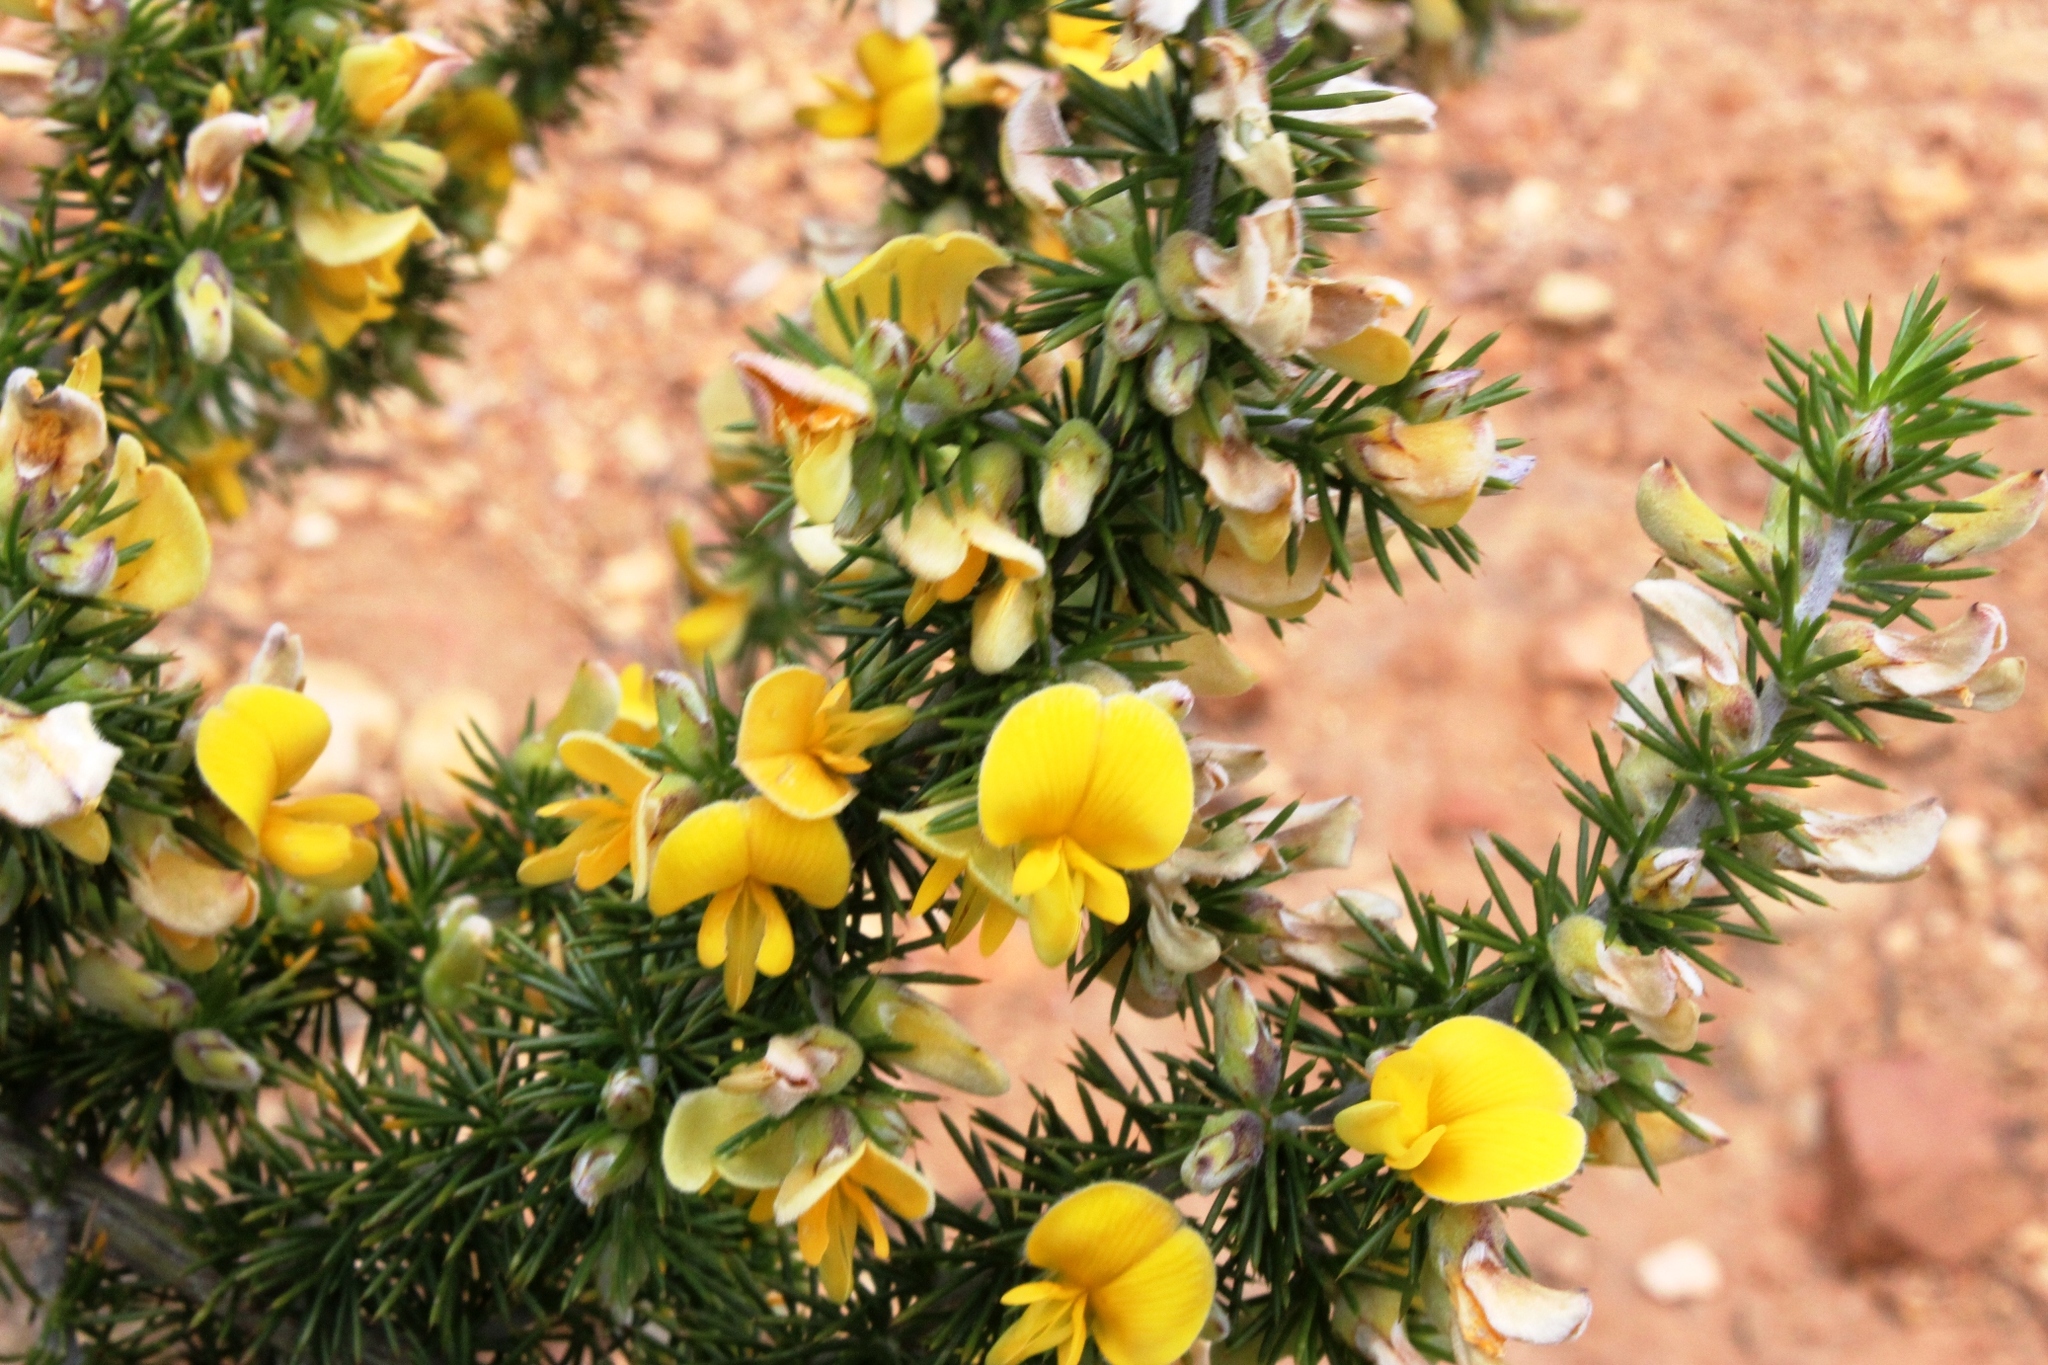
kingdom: Plantae
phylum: Tracheophyta
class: Magnoliopsida
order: Fabales
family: Fabaceae
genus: Aspalathus
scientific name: Aspalathus hirta
